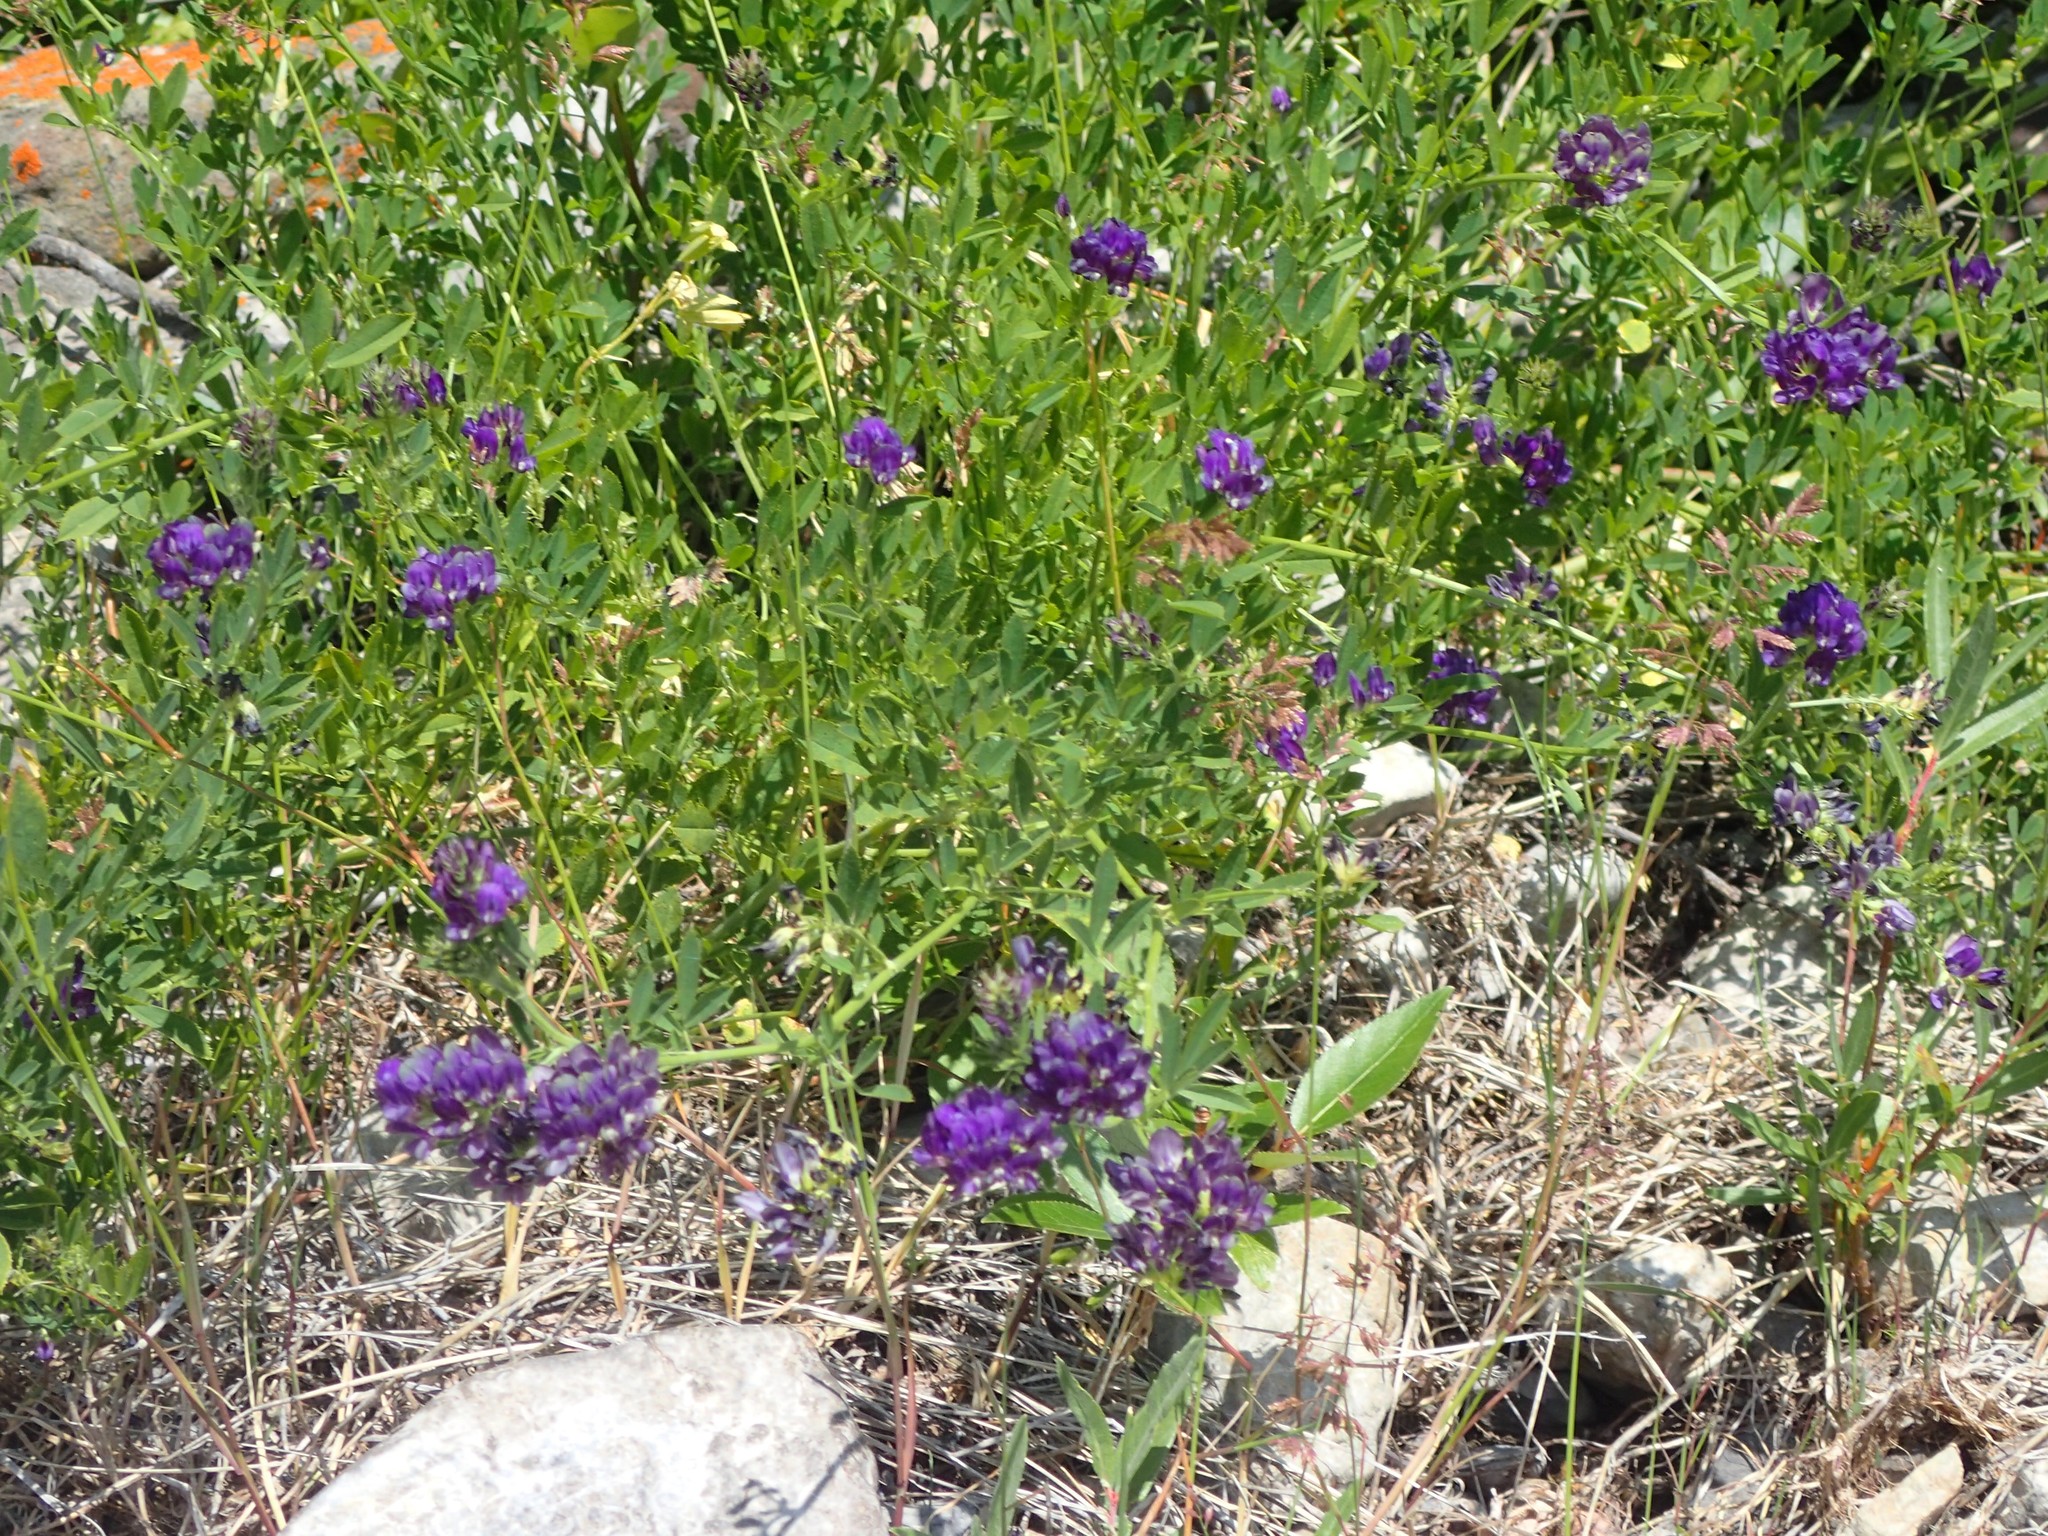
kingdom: Plantae
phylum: Tracheophyta
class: Magnoliopsida
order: Fabales
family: Fabaceae
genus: Medicago
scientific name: Medicago sativa
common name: Alfalfa
